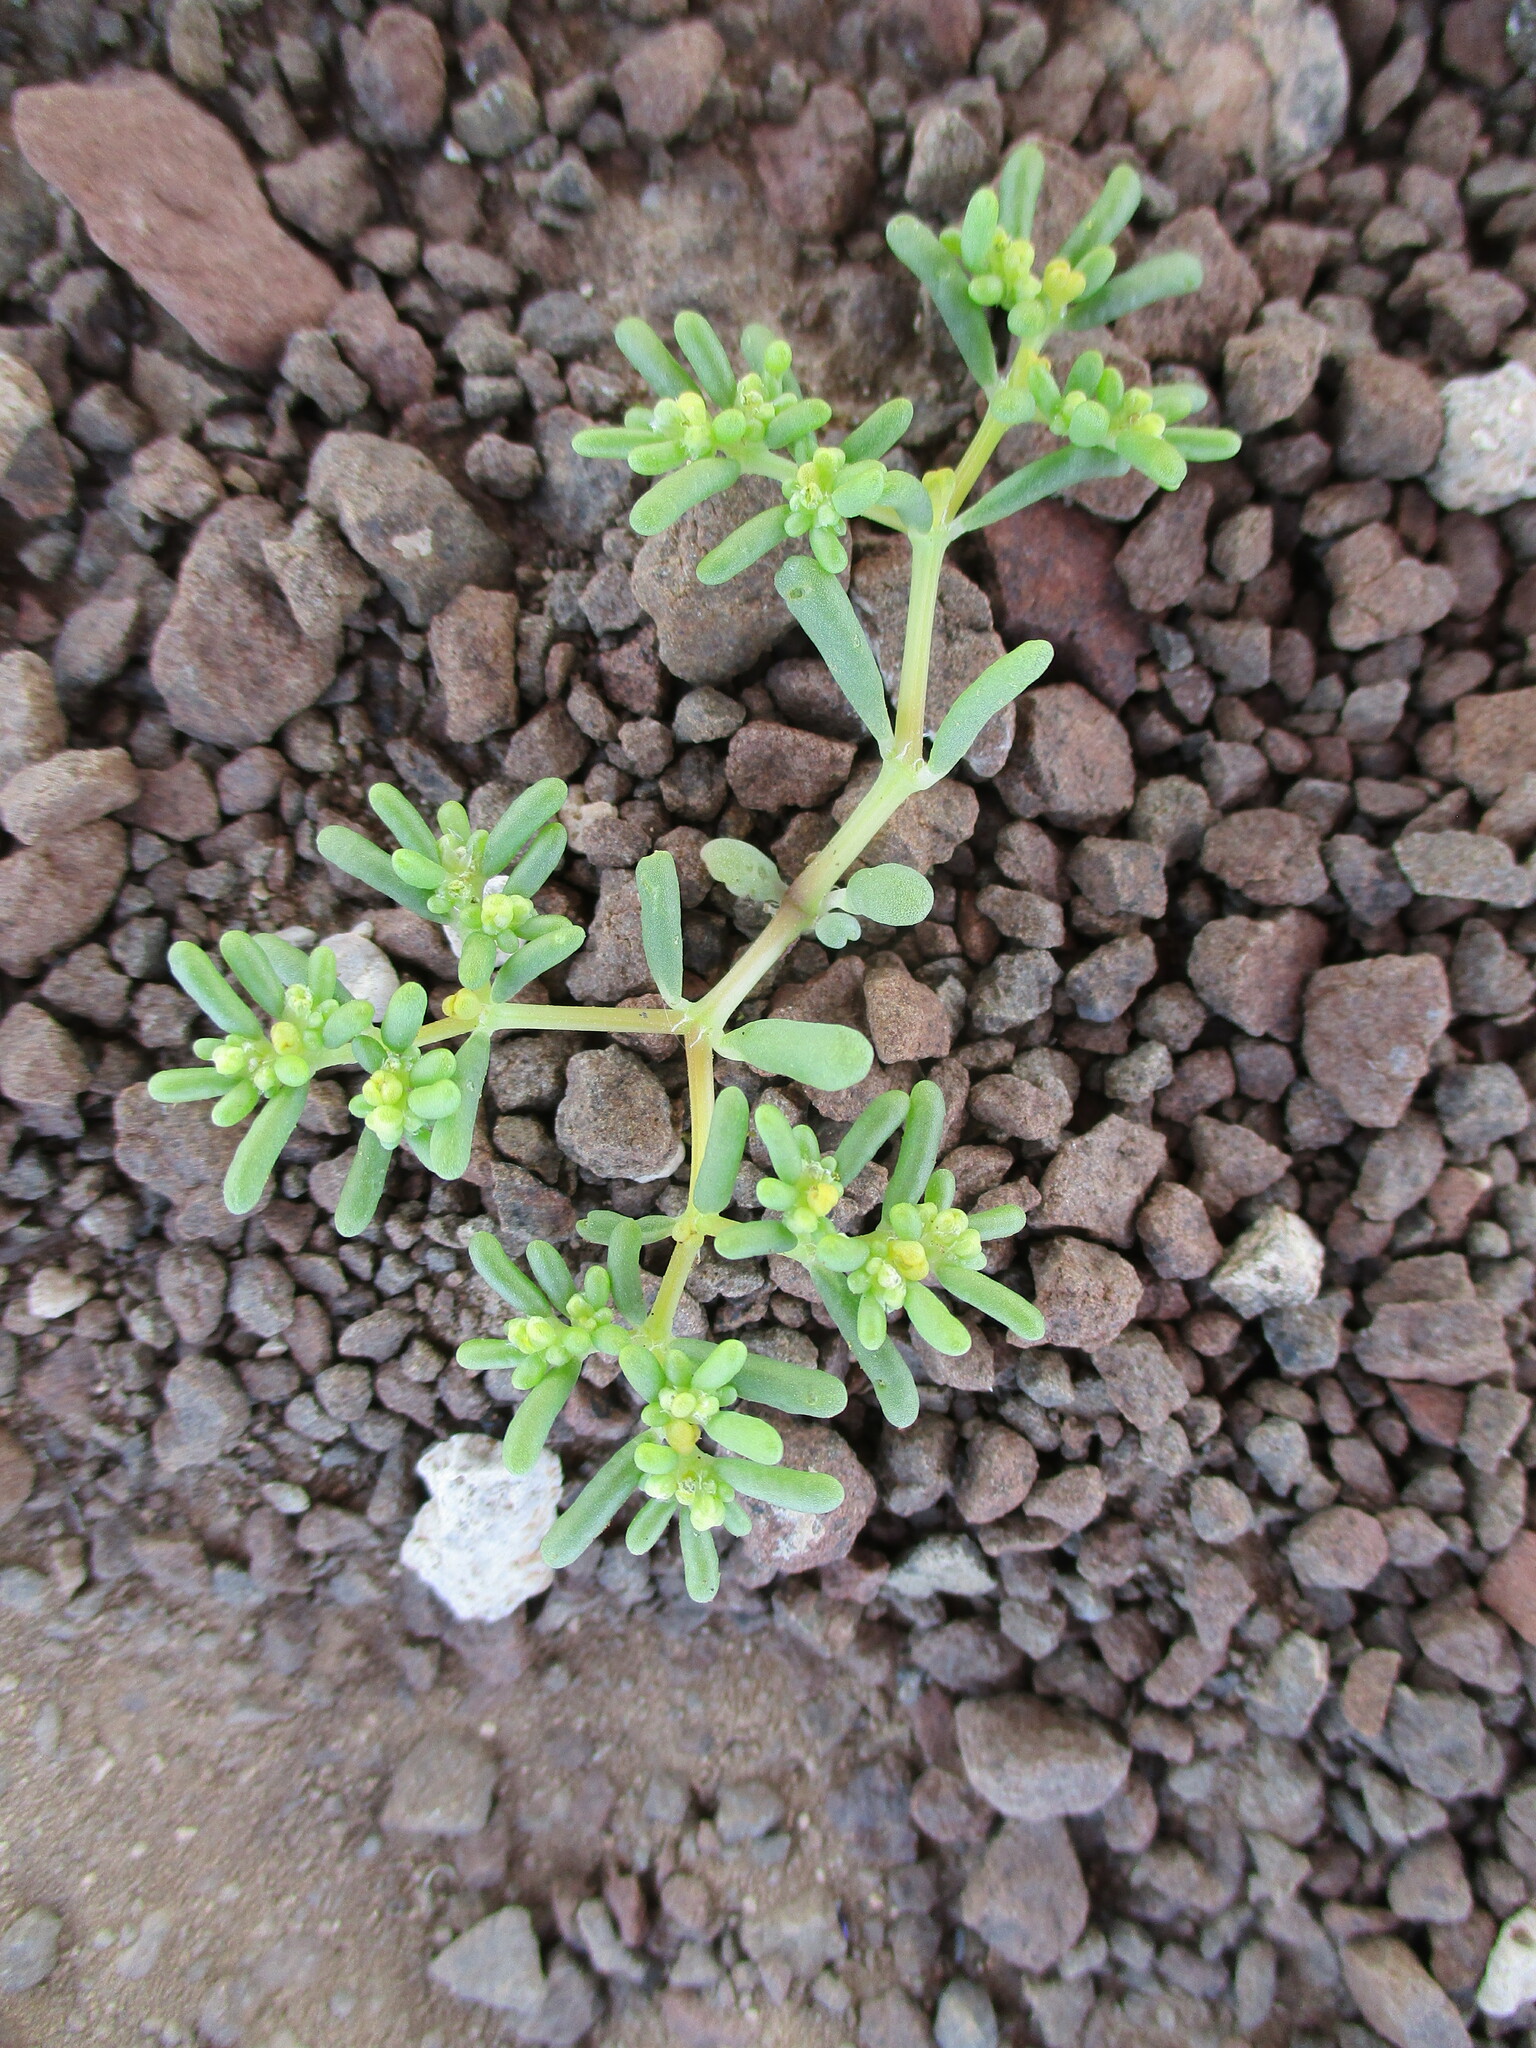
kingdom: Plantae
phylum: Tracheophyta
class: Magnoliopsida
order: Zygophyllales
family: Zygophyllaceae
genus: Tetraena
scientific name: Tetraena simplex
